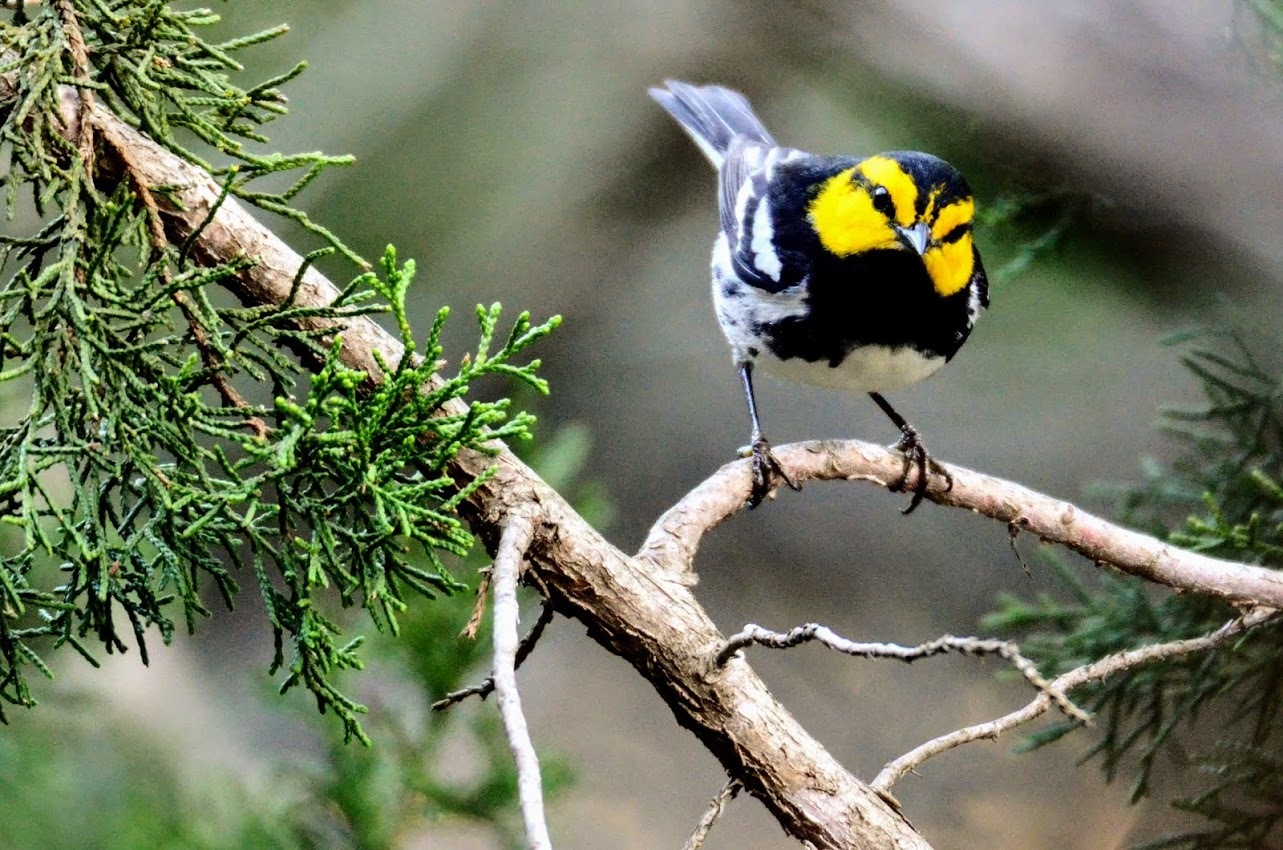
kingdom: Animalia
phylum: Chordata
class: Aves
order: Passeriformes
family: Parulidae
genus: Setophaga
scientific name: Setophaga chrysoparia
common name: Golden-cheeked warbler
